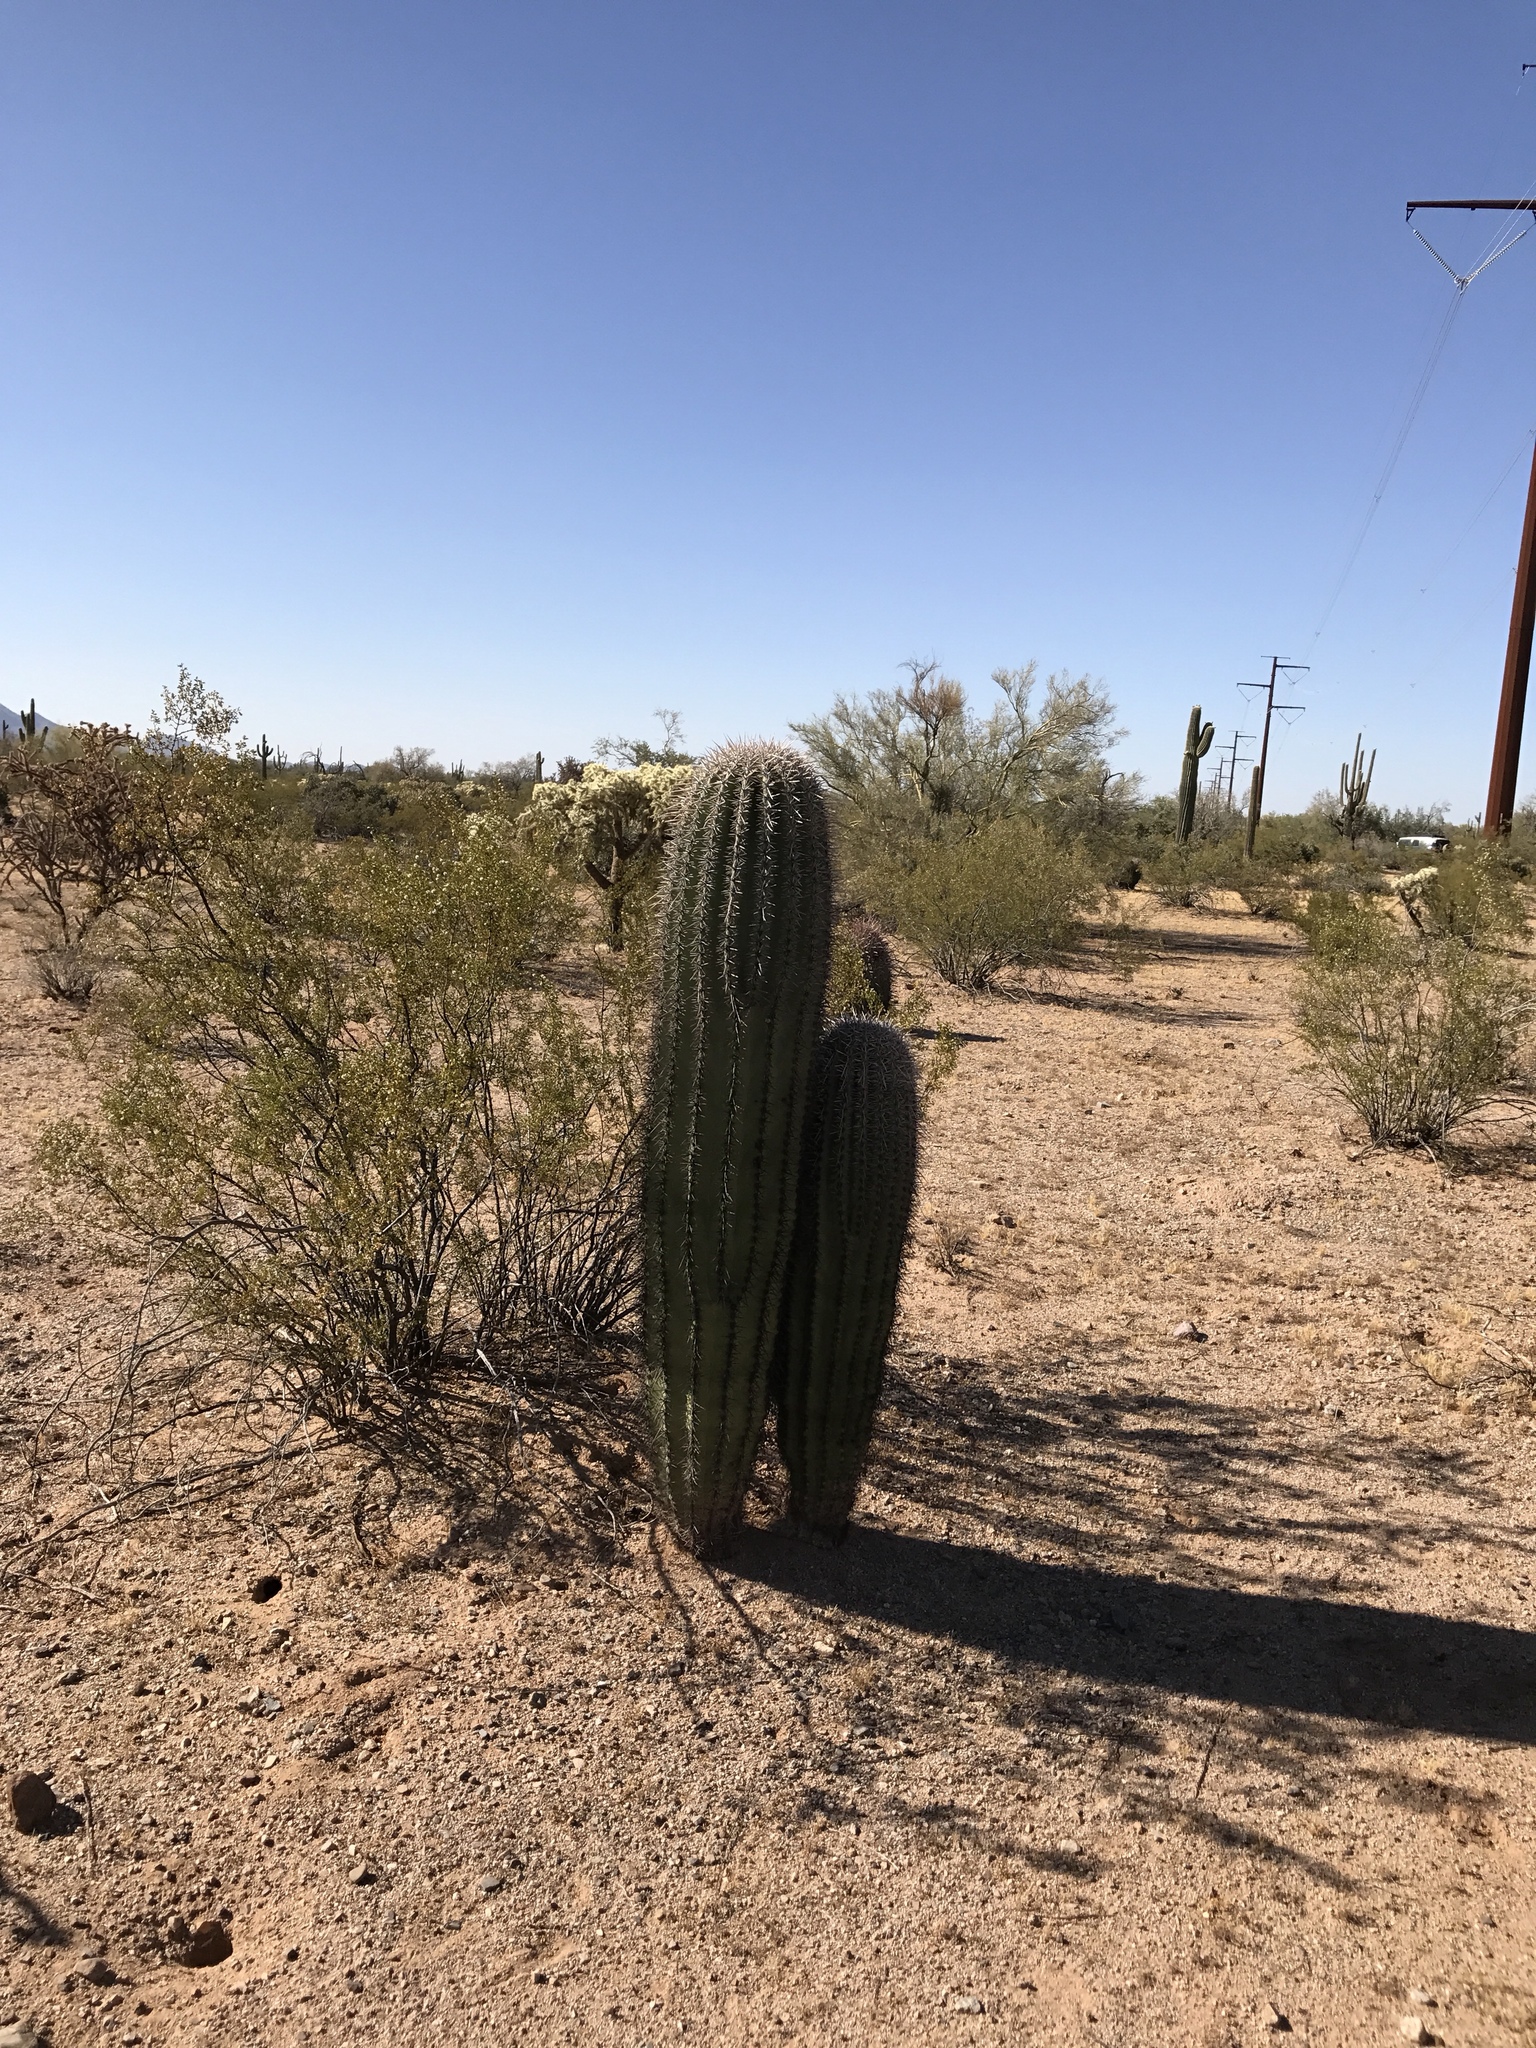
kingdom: Plantae
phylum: Tracheophyta
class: Magnoliopsida
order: Caryophyllales
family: Cactaceae
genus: Carnegiea
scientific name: Carnegiea gigantea
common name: Saguaro
